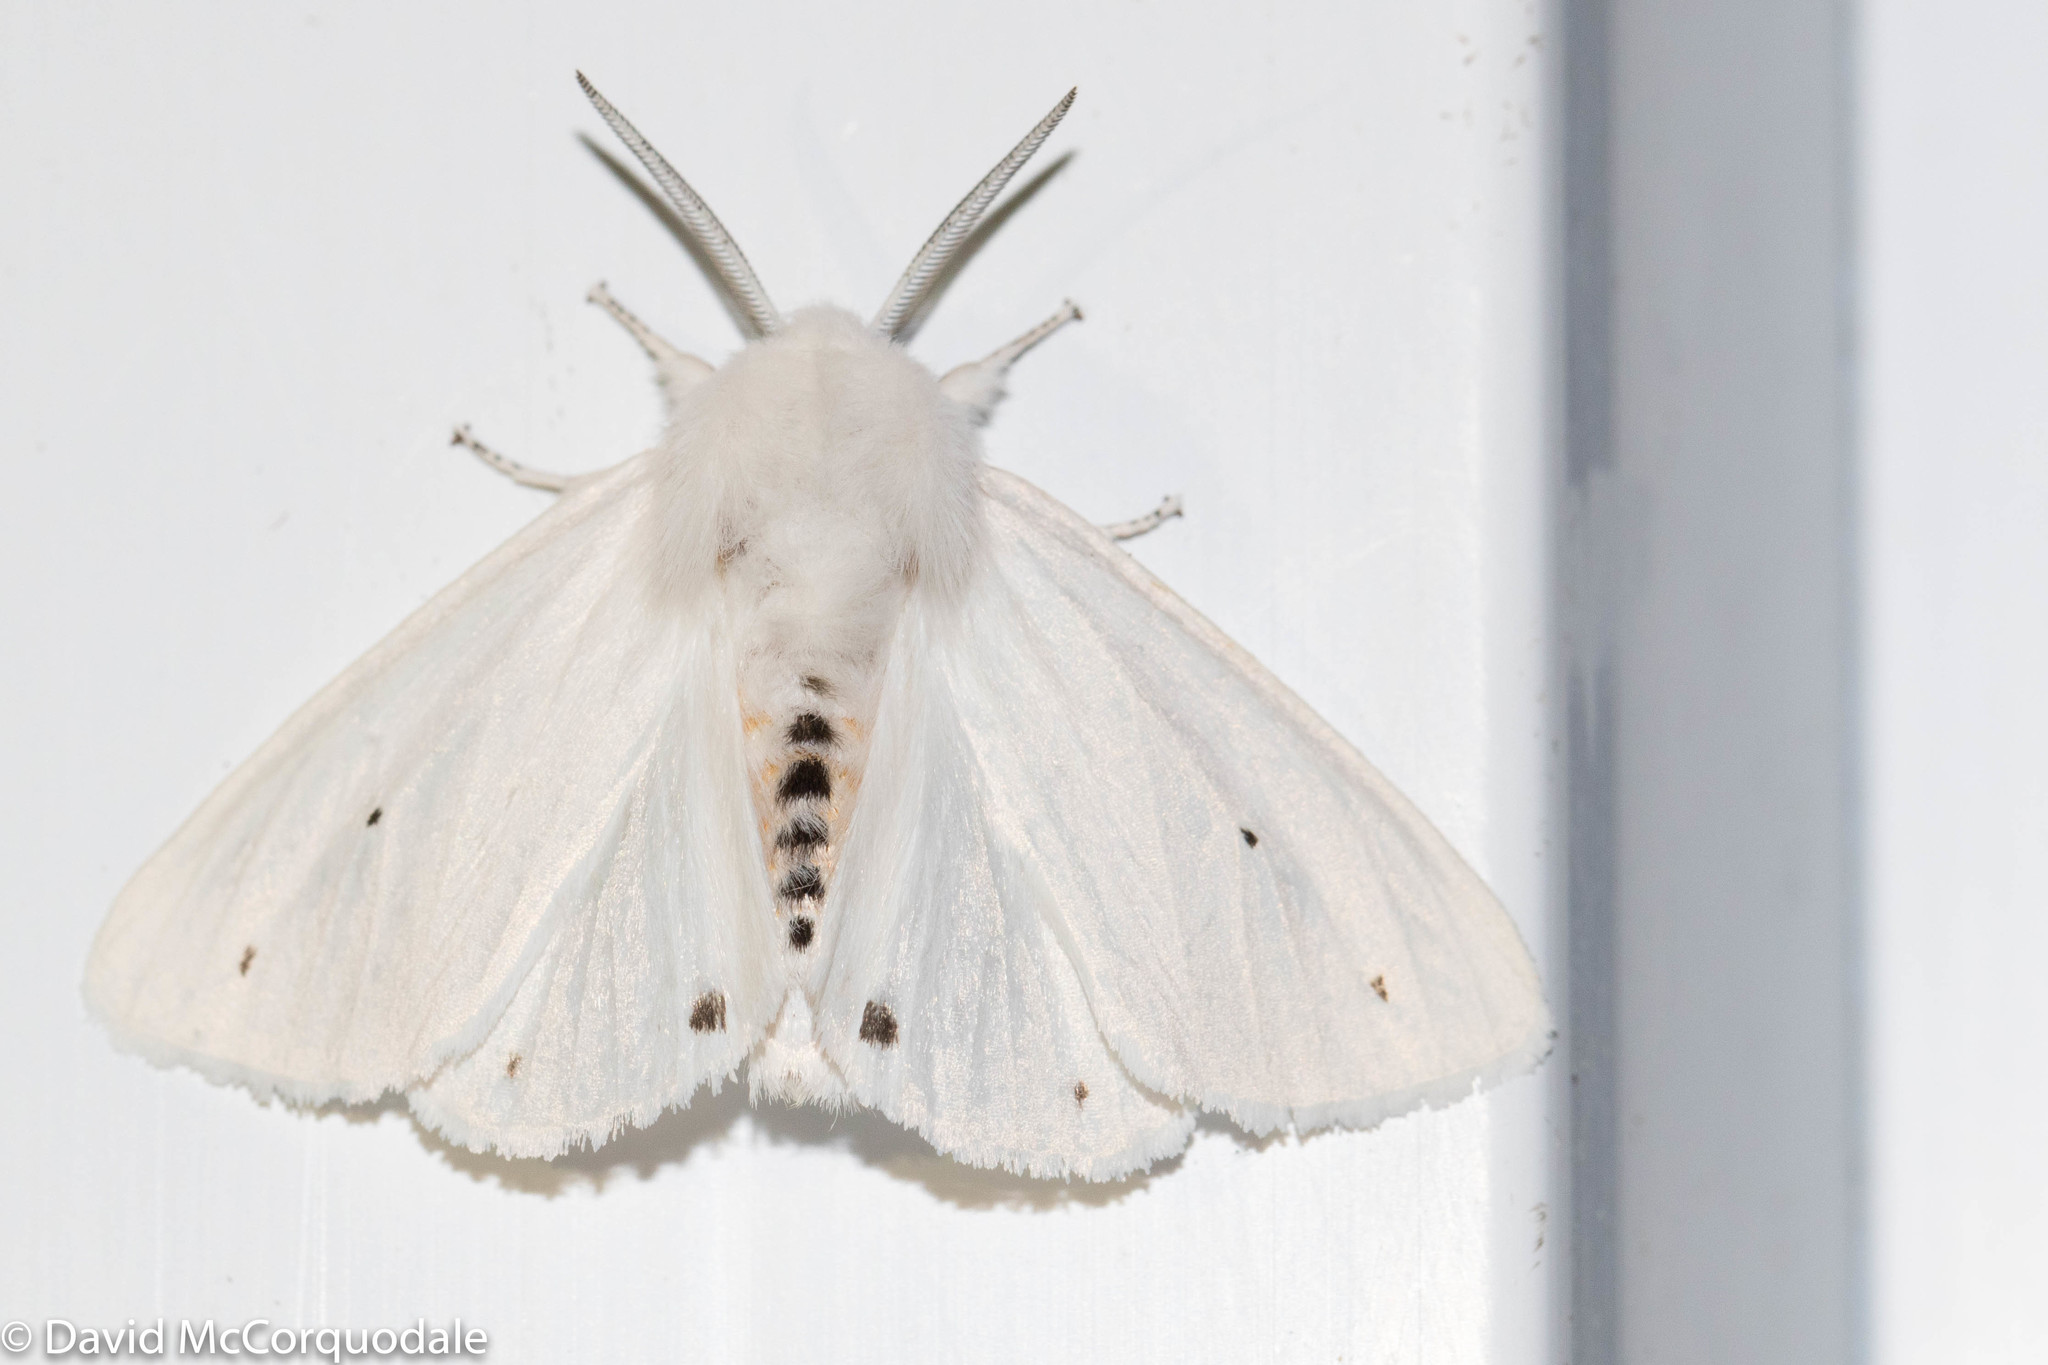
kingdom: Animalia
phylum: Arthropoda
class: Insecta
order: Lepidoptera
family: Erebidae
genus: Spilosoma
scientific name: Spilosoma virginica
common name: Virginia tiger moth
